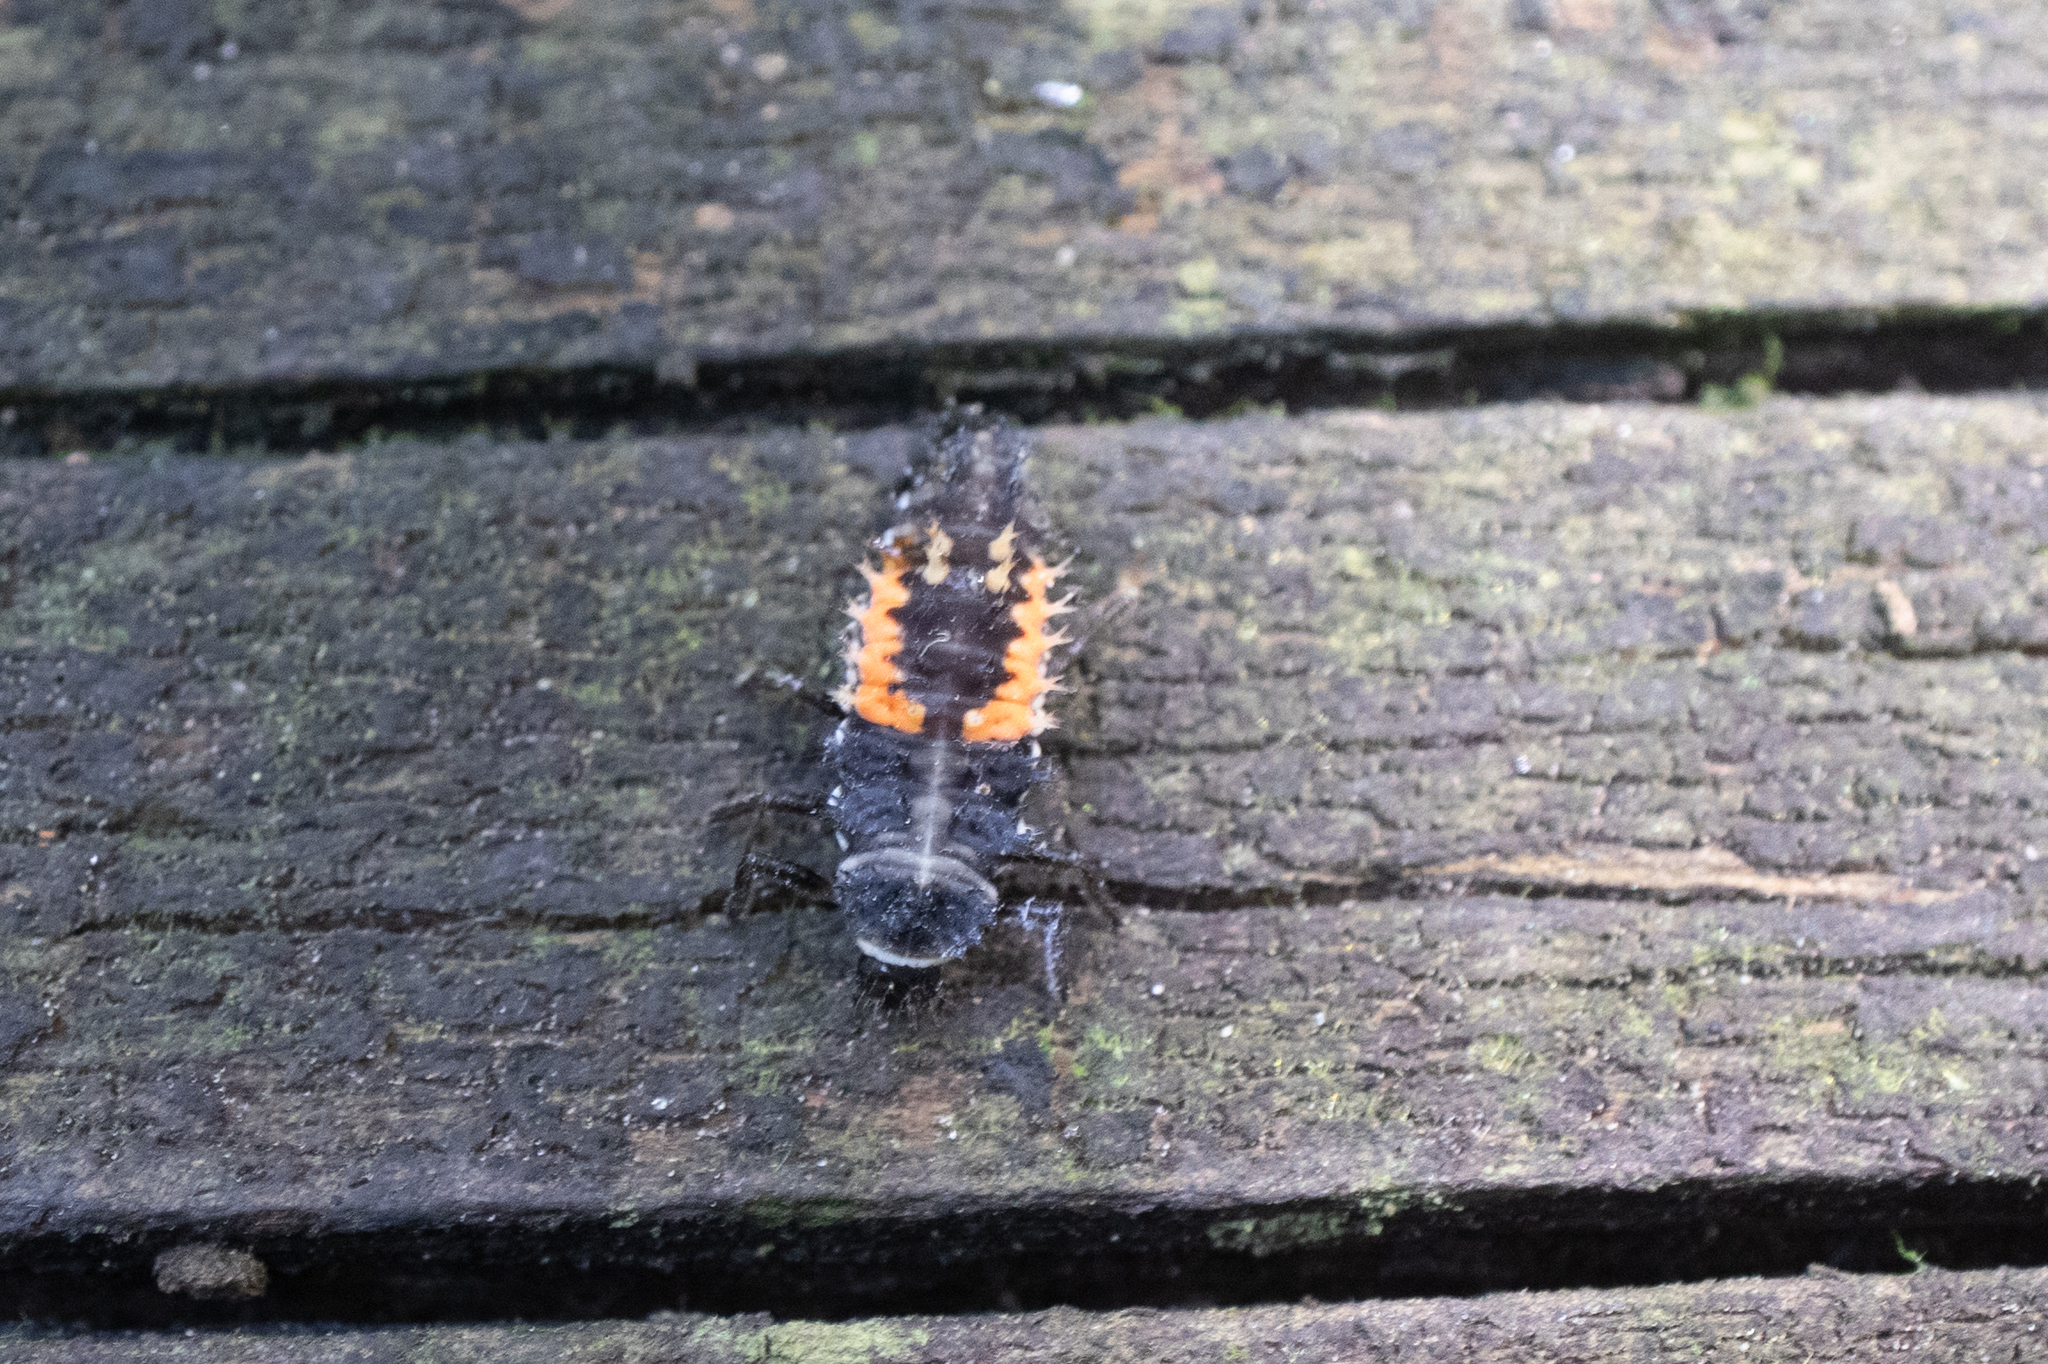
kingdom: Animalia
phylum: Arthropoda
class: Insecta
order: Coleoptera
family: Coccinellidae
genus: Harmonia
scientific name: Harmonia axyridis
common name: Harlequin ladybird
